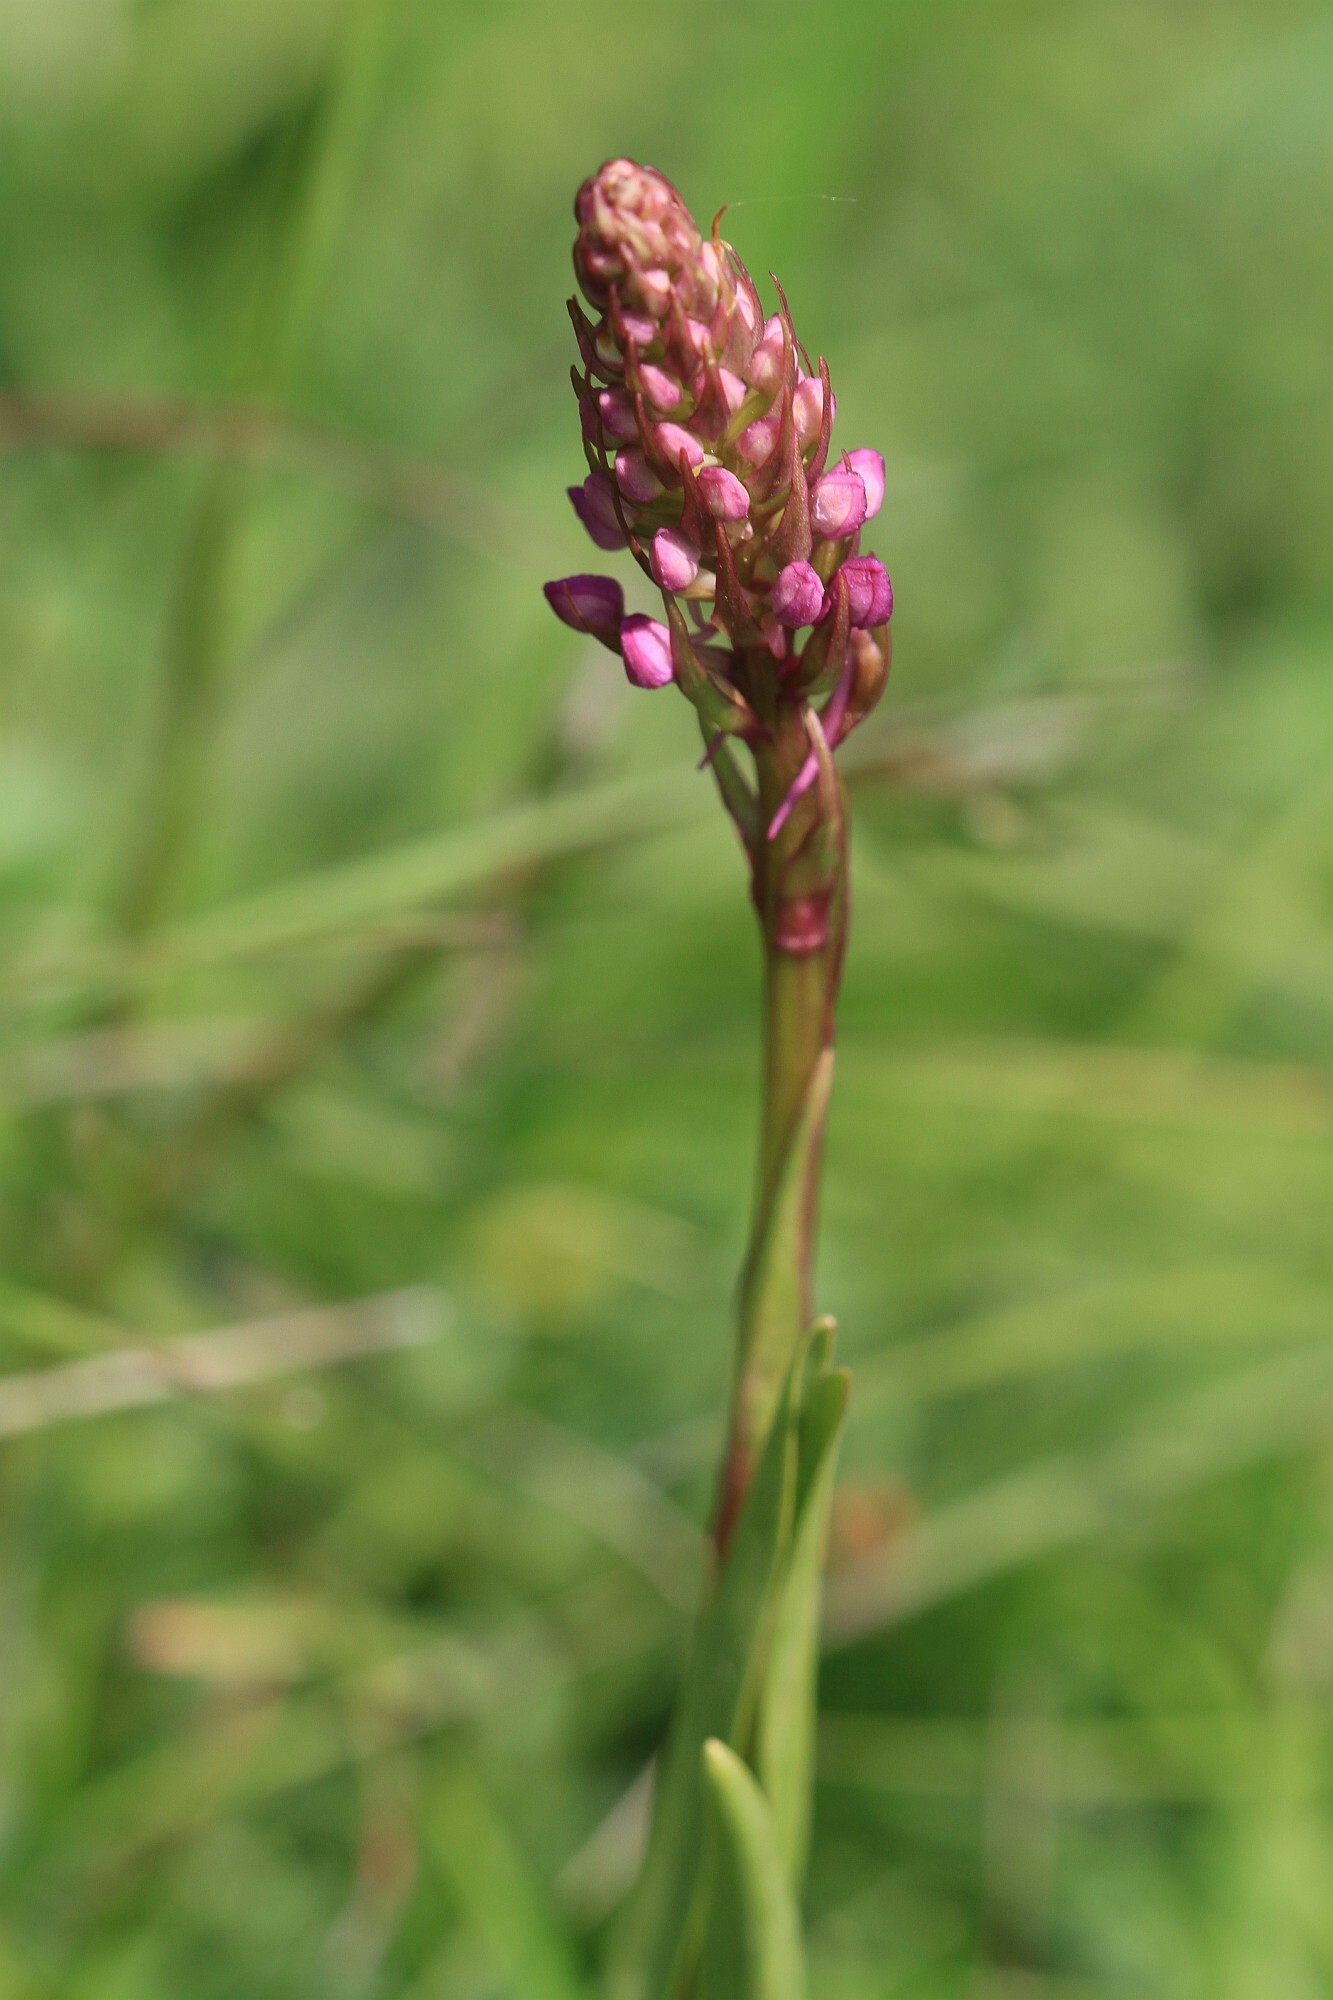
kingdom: Plantae
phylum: Tracheophyta
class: Liliopsida
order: Asparagales
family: Orchidaceae
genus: Anacamptis
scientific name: Anacamptis pyramidalis
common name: Pyramidal orchid
